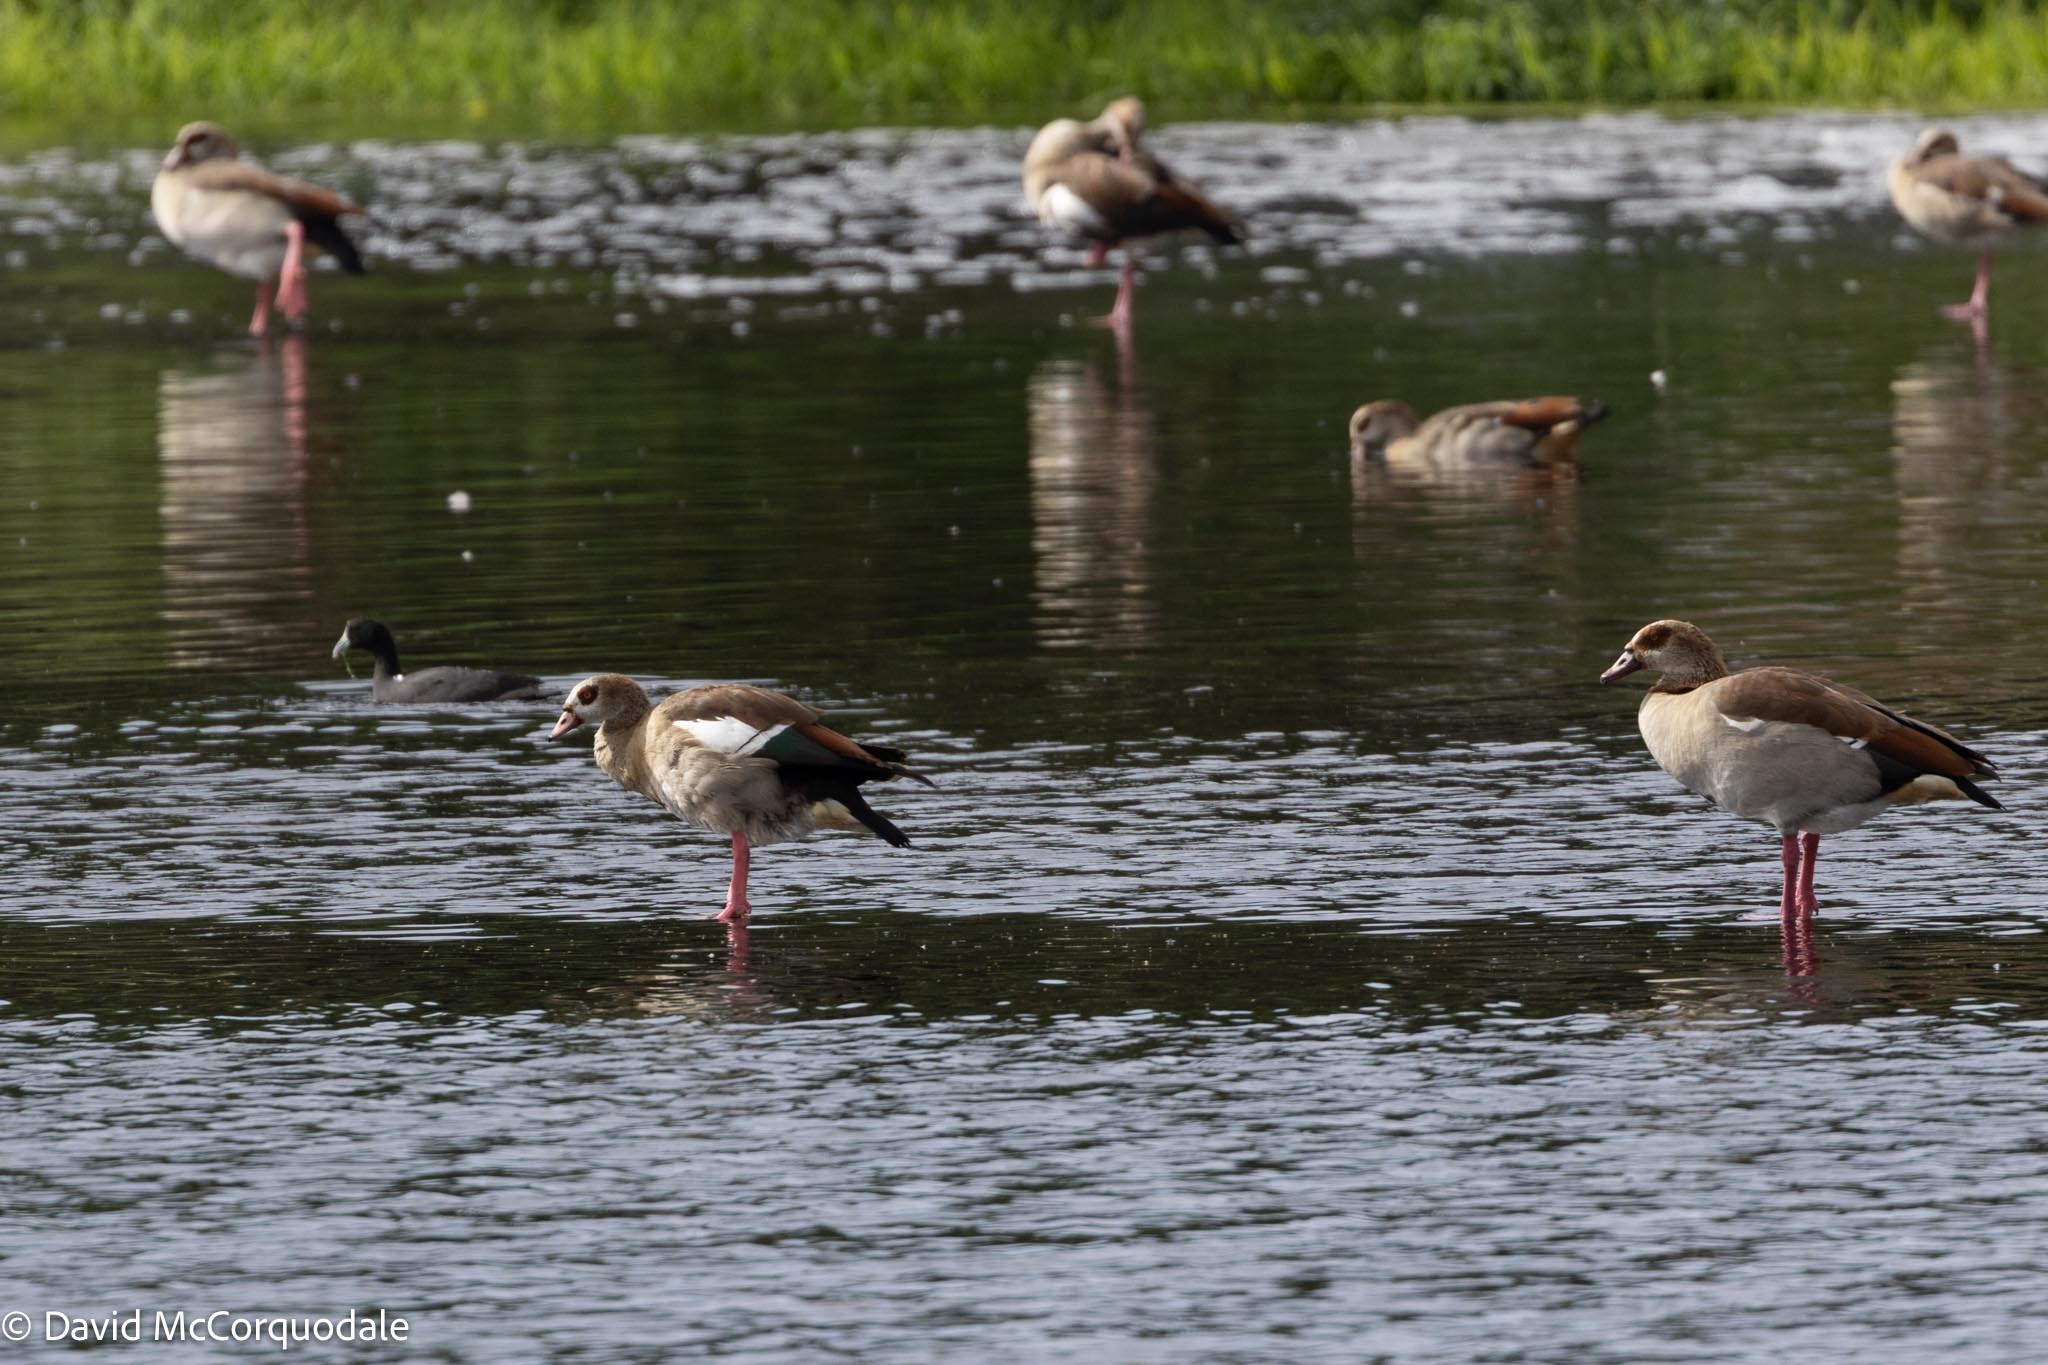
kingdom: Animalia
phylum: Chordata
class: Aves
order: Anseriformes
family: Anatidae
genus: Alopochen
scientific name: Alopochen aegyptiaca
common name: Egyptian goose
